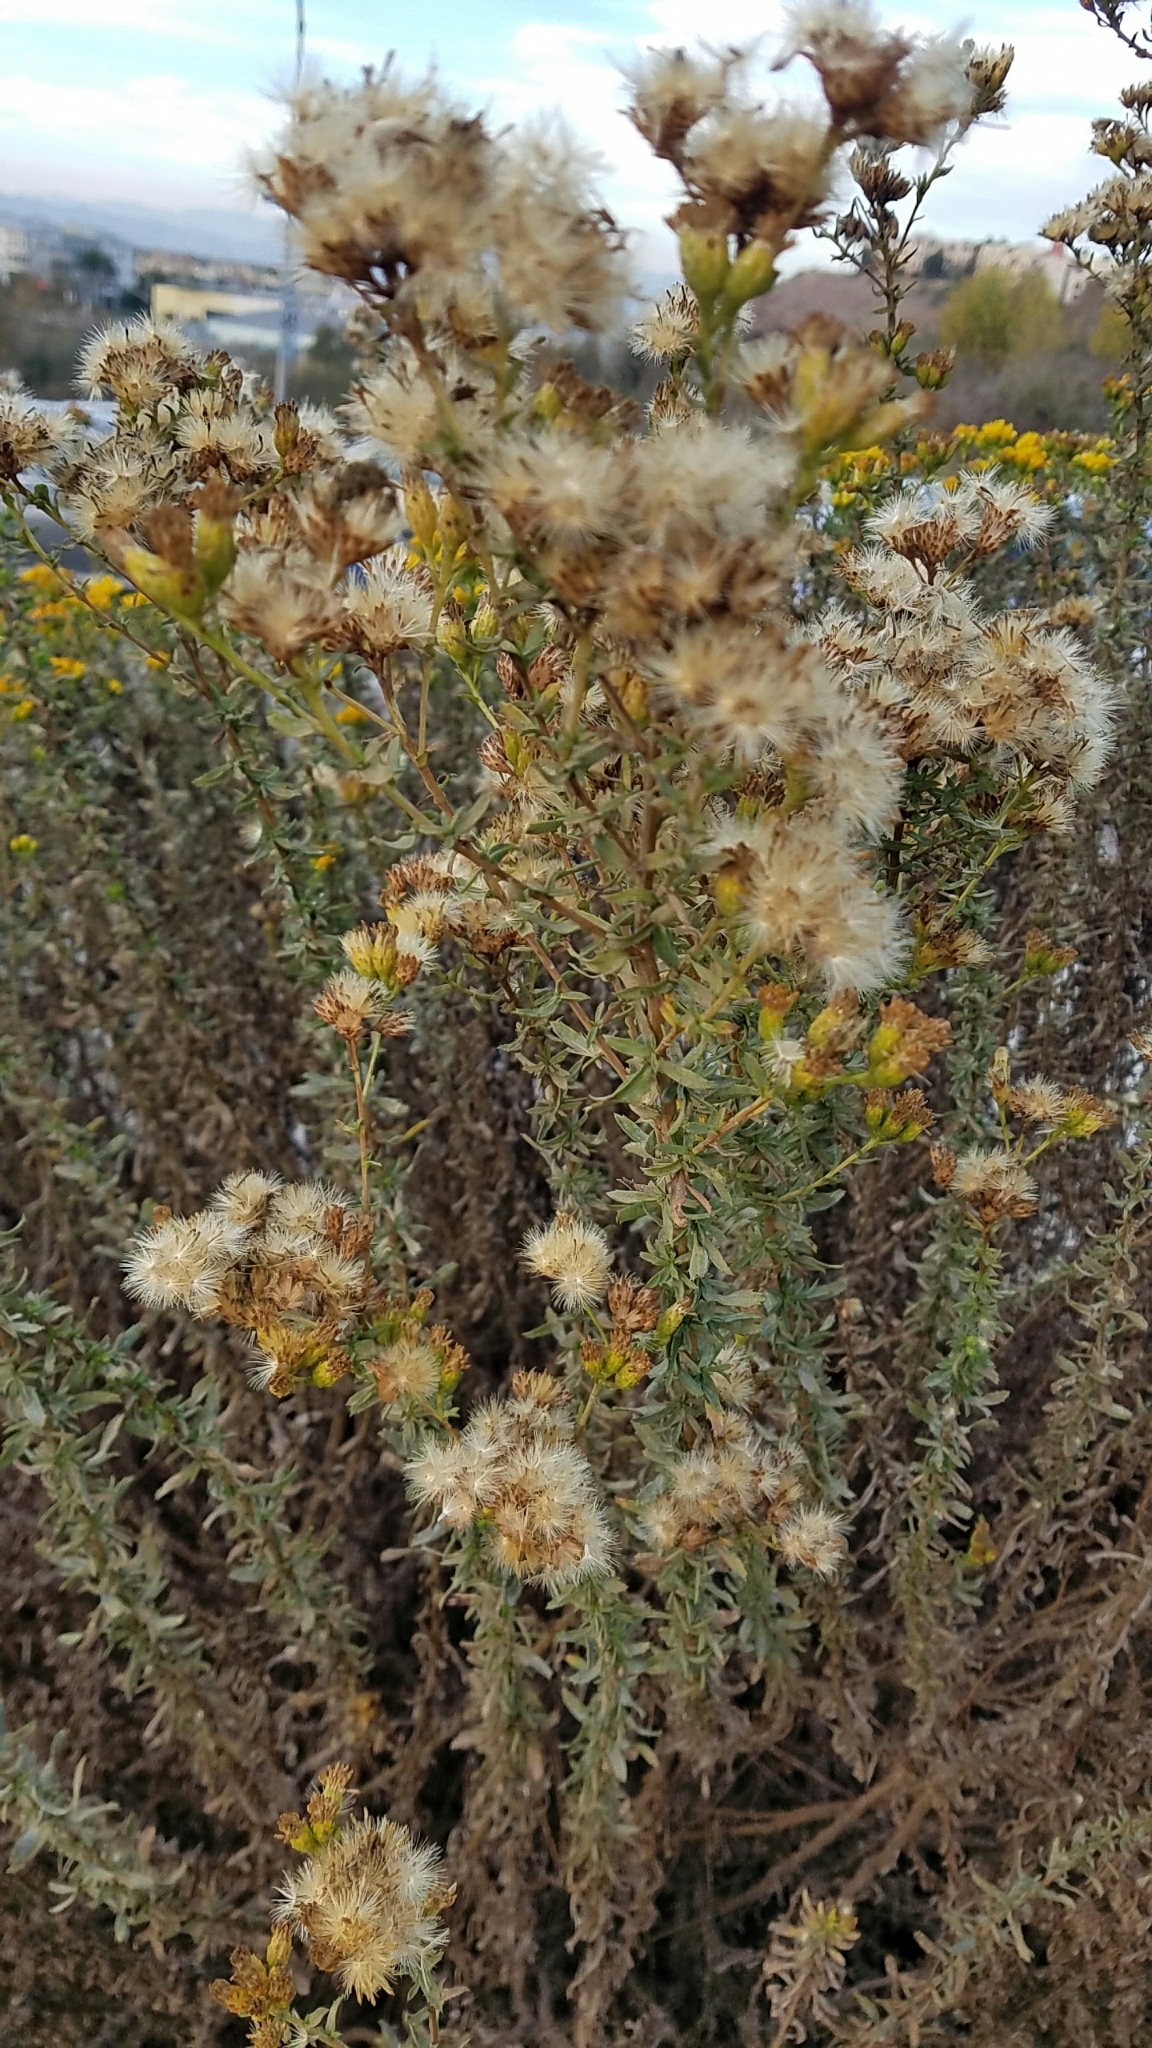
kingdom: Plantae
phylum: Tracheophyta
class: Magnoliopsida
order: Asterales
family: Asteraceae
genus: Isocoma
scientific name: Isocoma menziesii
